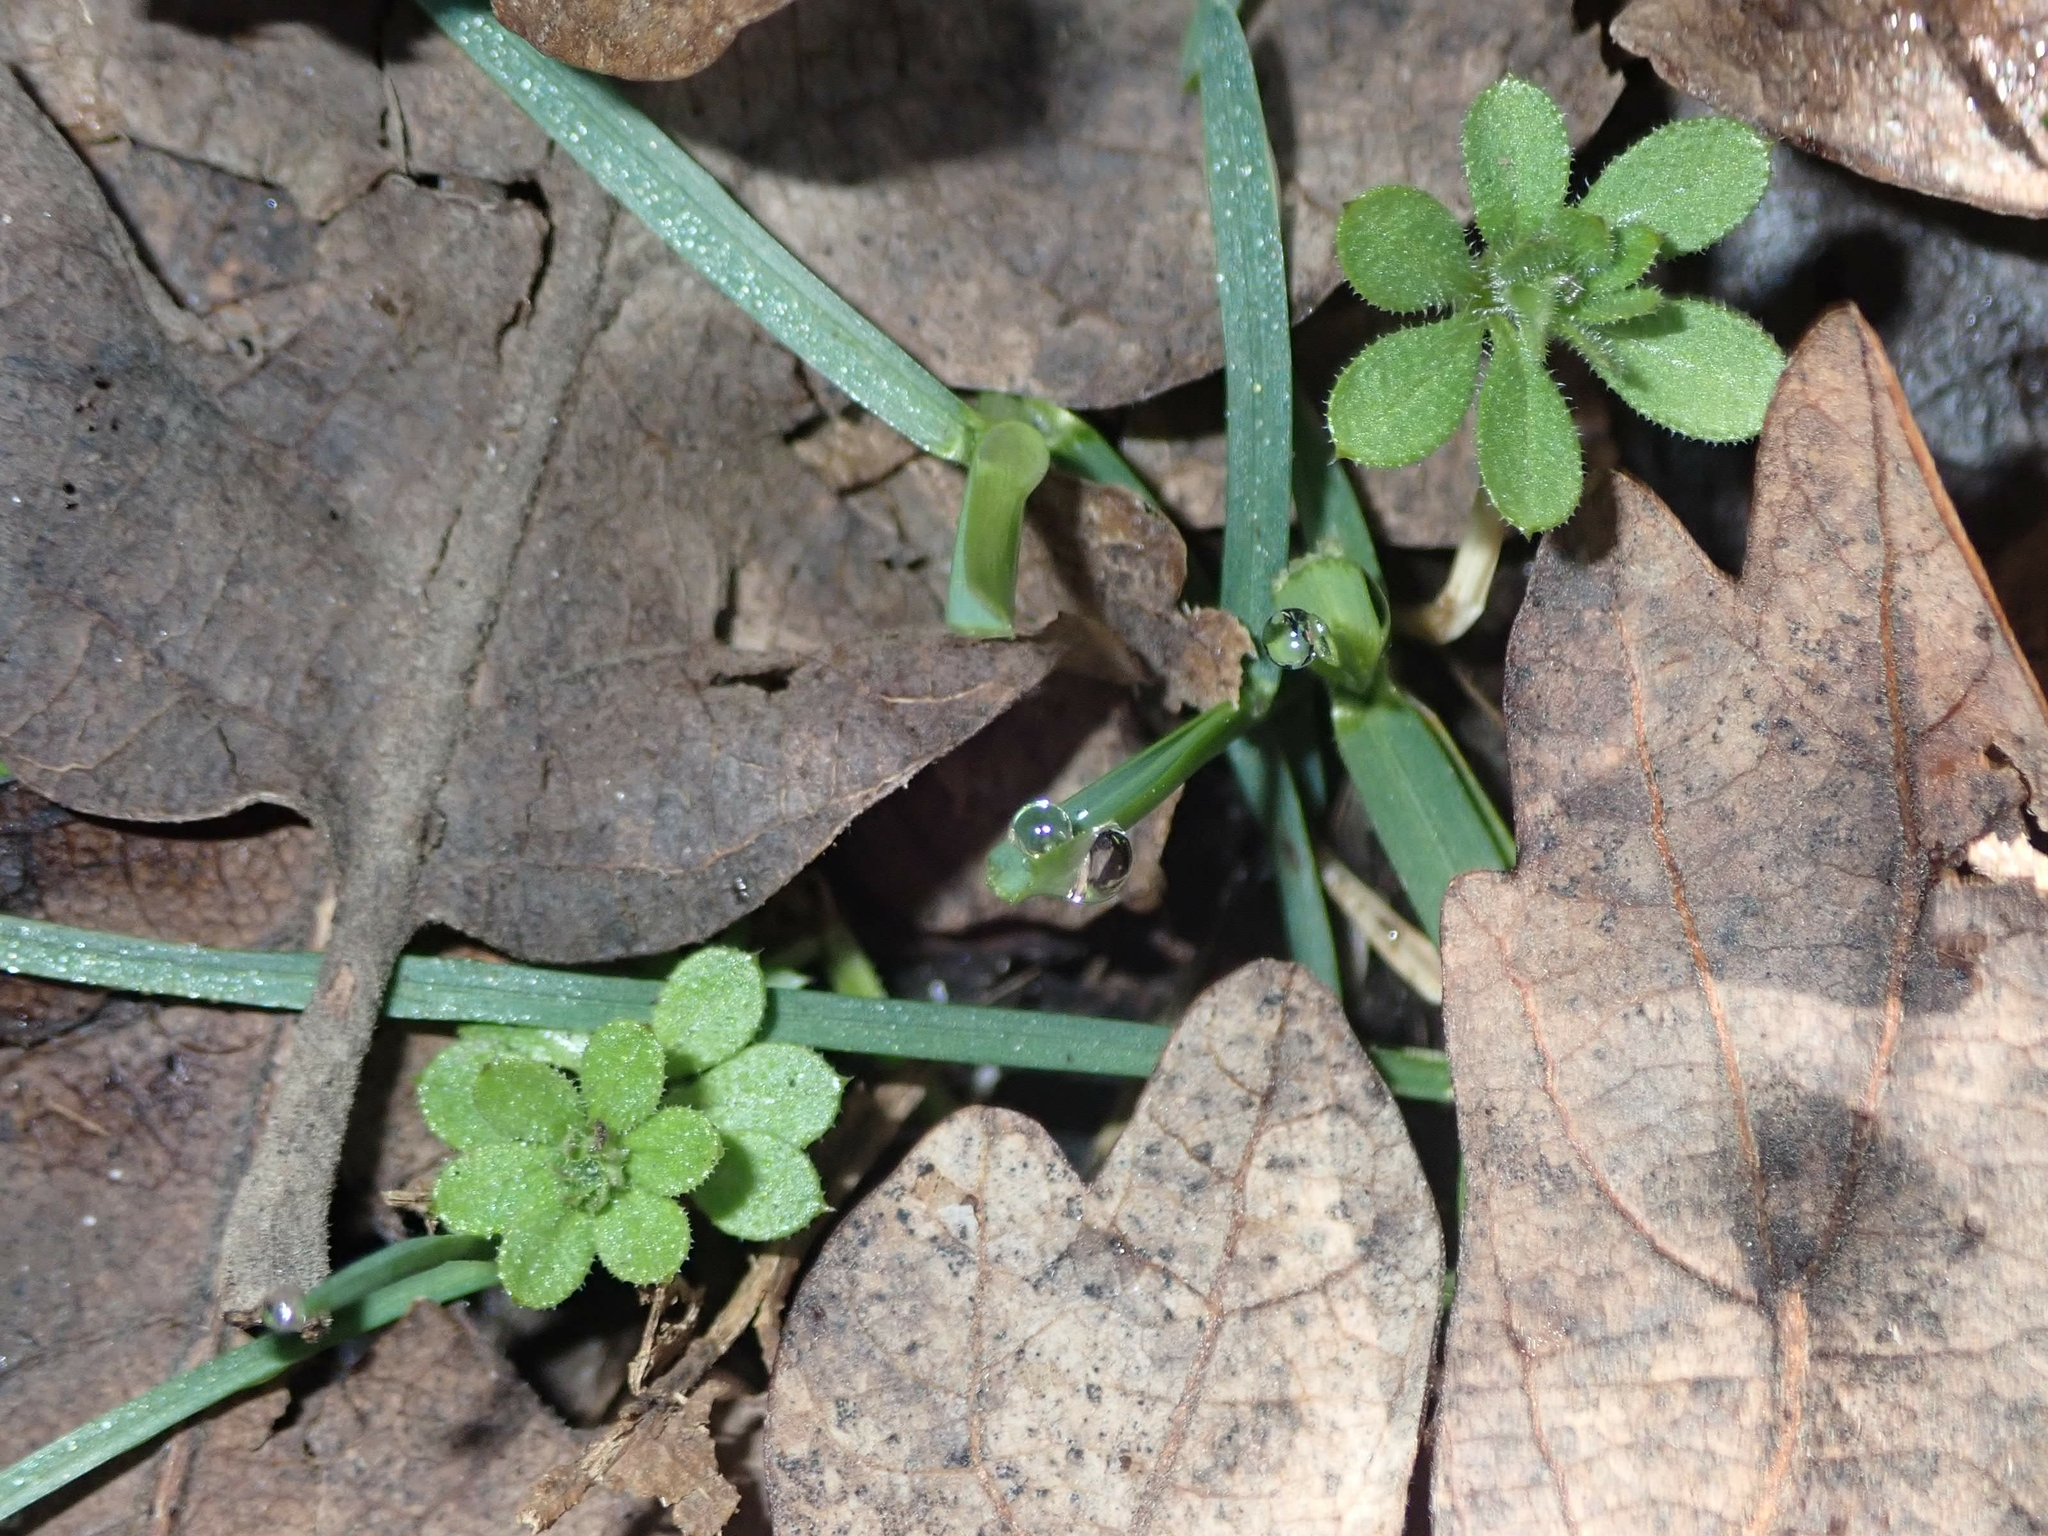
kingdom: Plantae
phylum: Tracheophyta
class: Magnoliopsida
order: Gentianales
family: Rubiaceae
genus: Galium
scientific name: Galium aparine
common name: Cleavers
